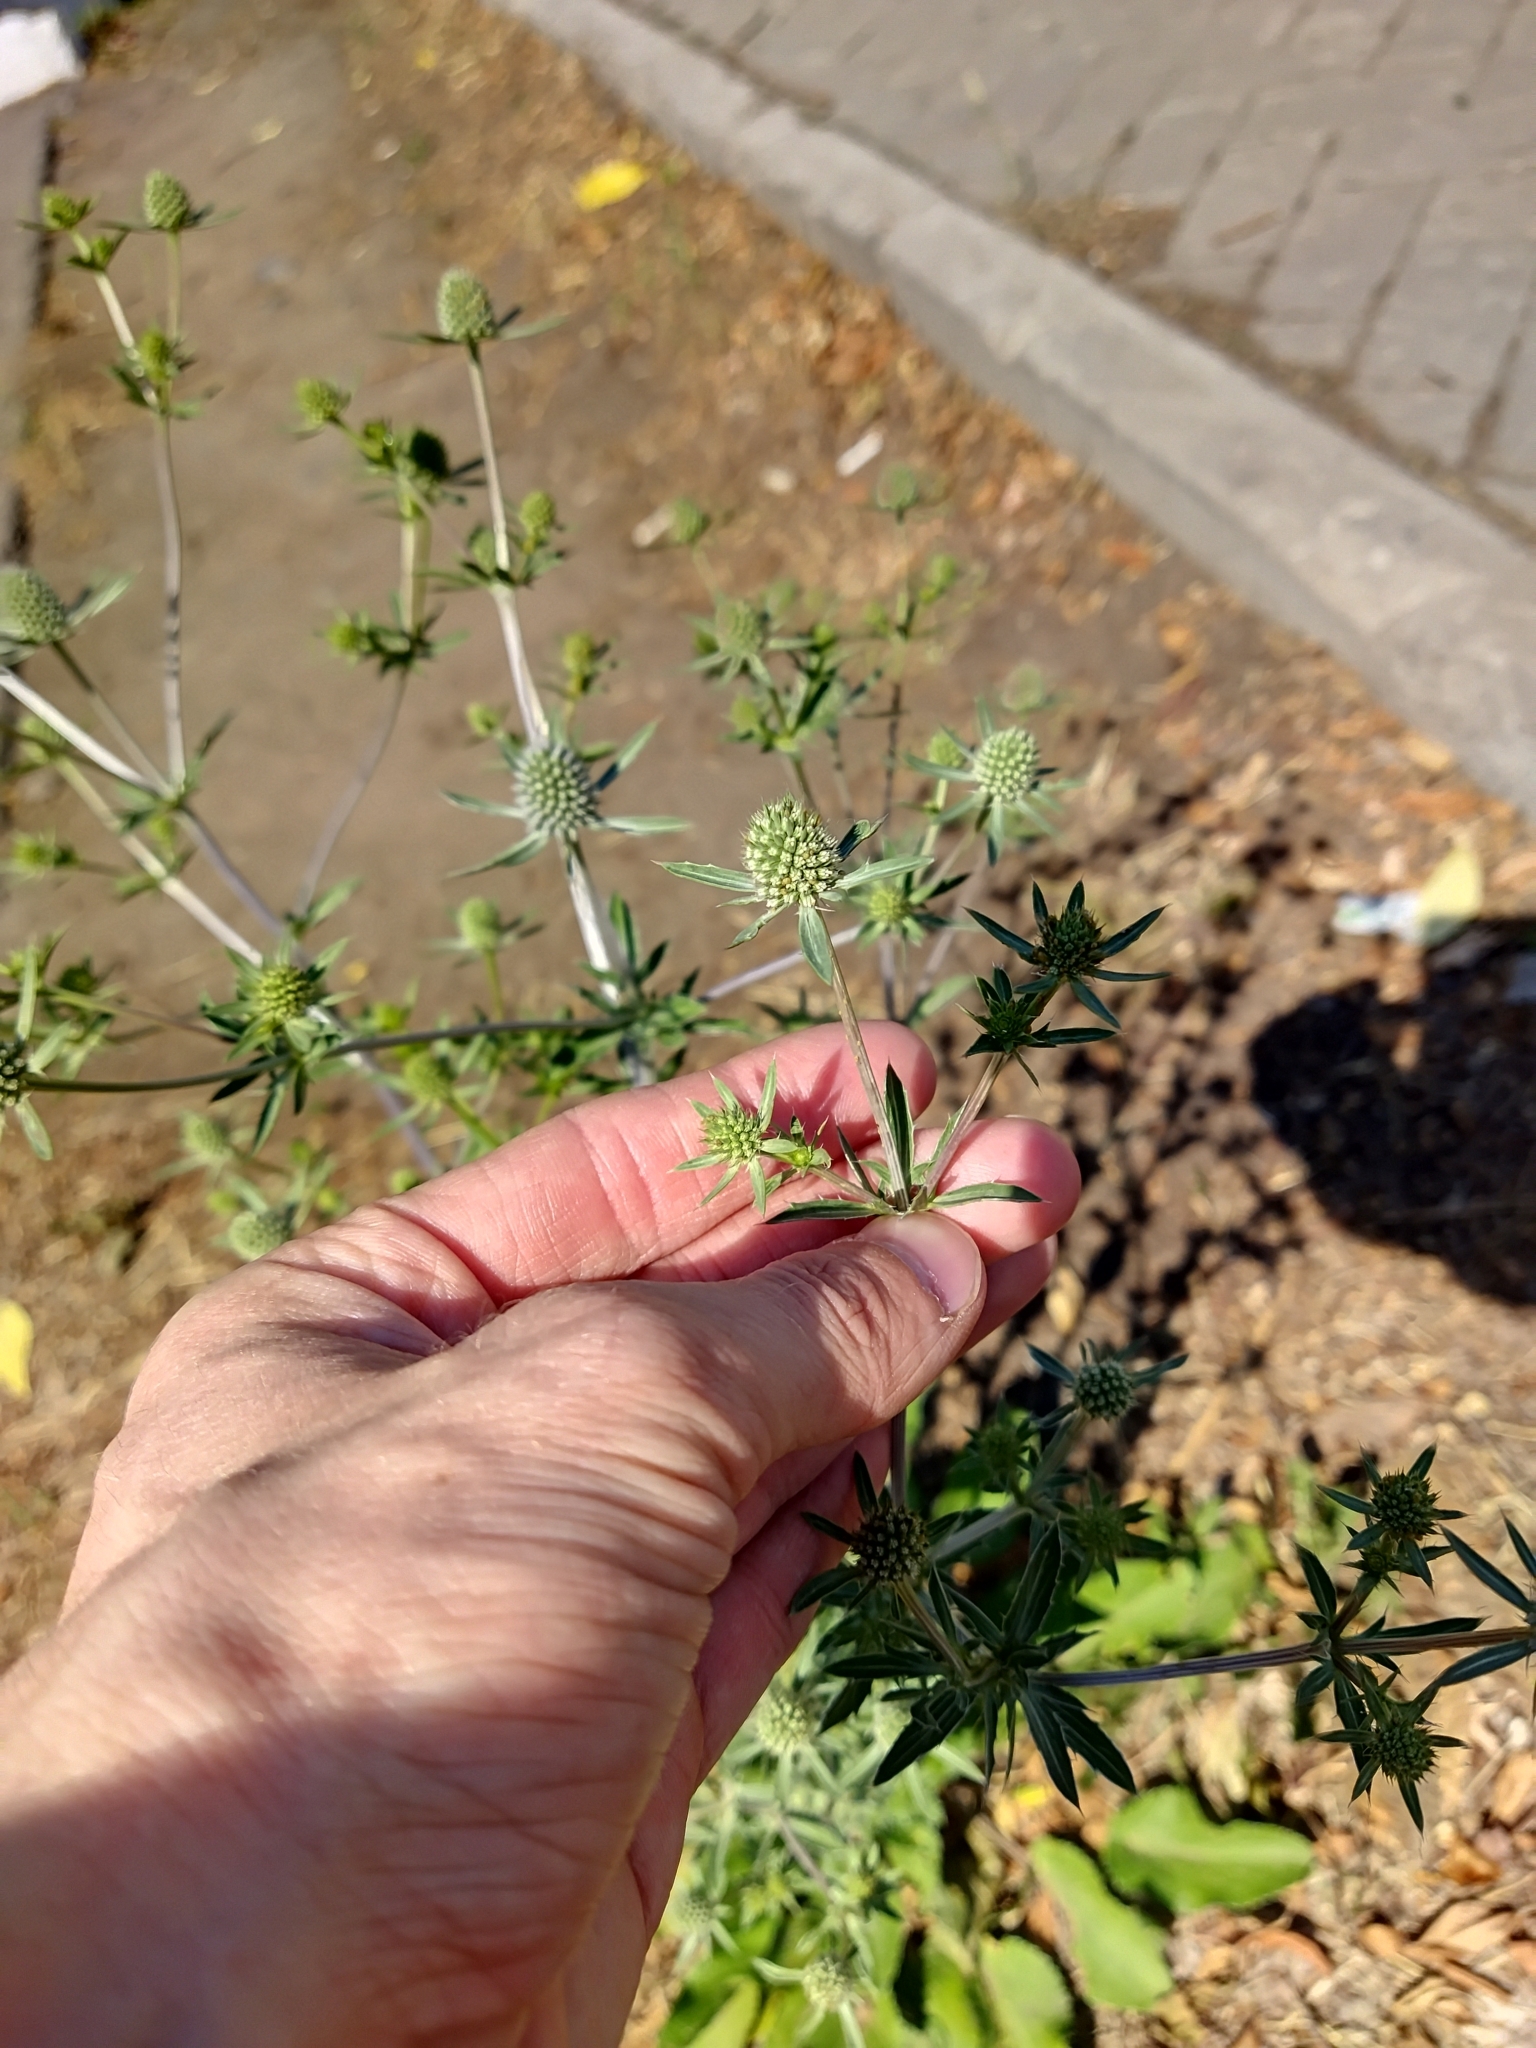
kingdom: Plantae
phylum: Tracheophyta
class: Magnoliopsida
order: Apiales
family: Apiaceae
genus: Eryngium
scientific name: Eryngium planum
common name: Blue eryngo
